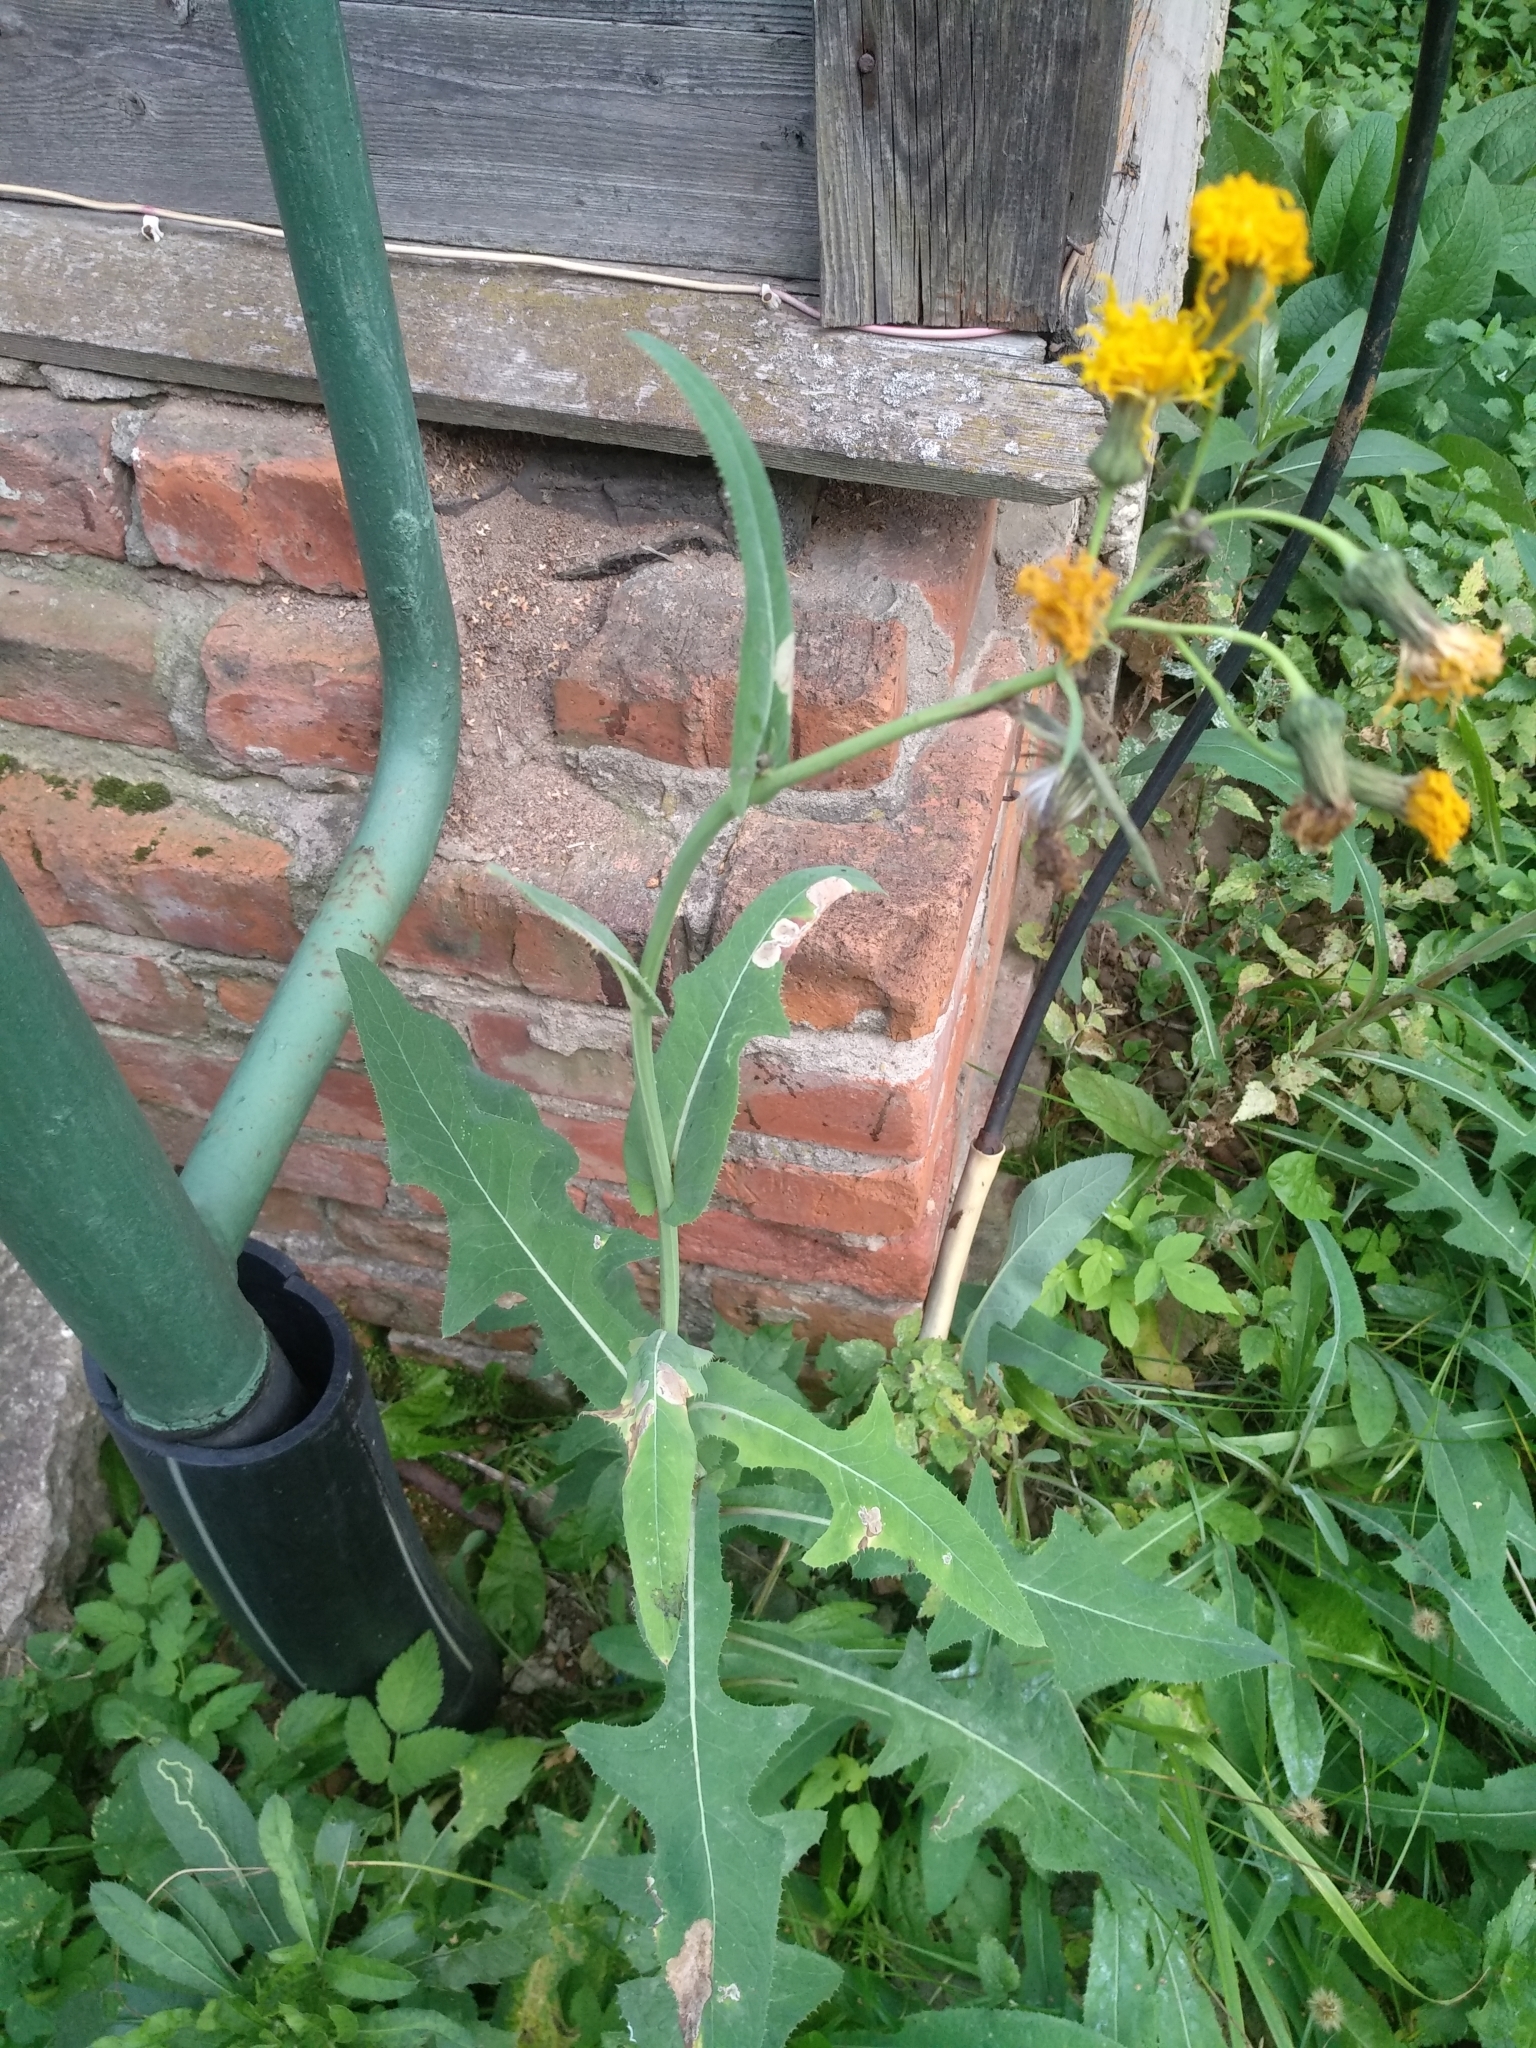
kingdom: Plantae
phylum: Tracheophyta
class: Magnoliopsida
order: Asterales
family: Asteraceae
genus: Sonchus
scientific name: Sonchus arvensis
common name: Perennial sow-thistle
